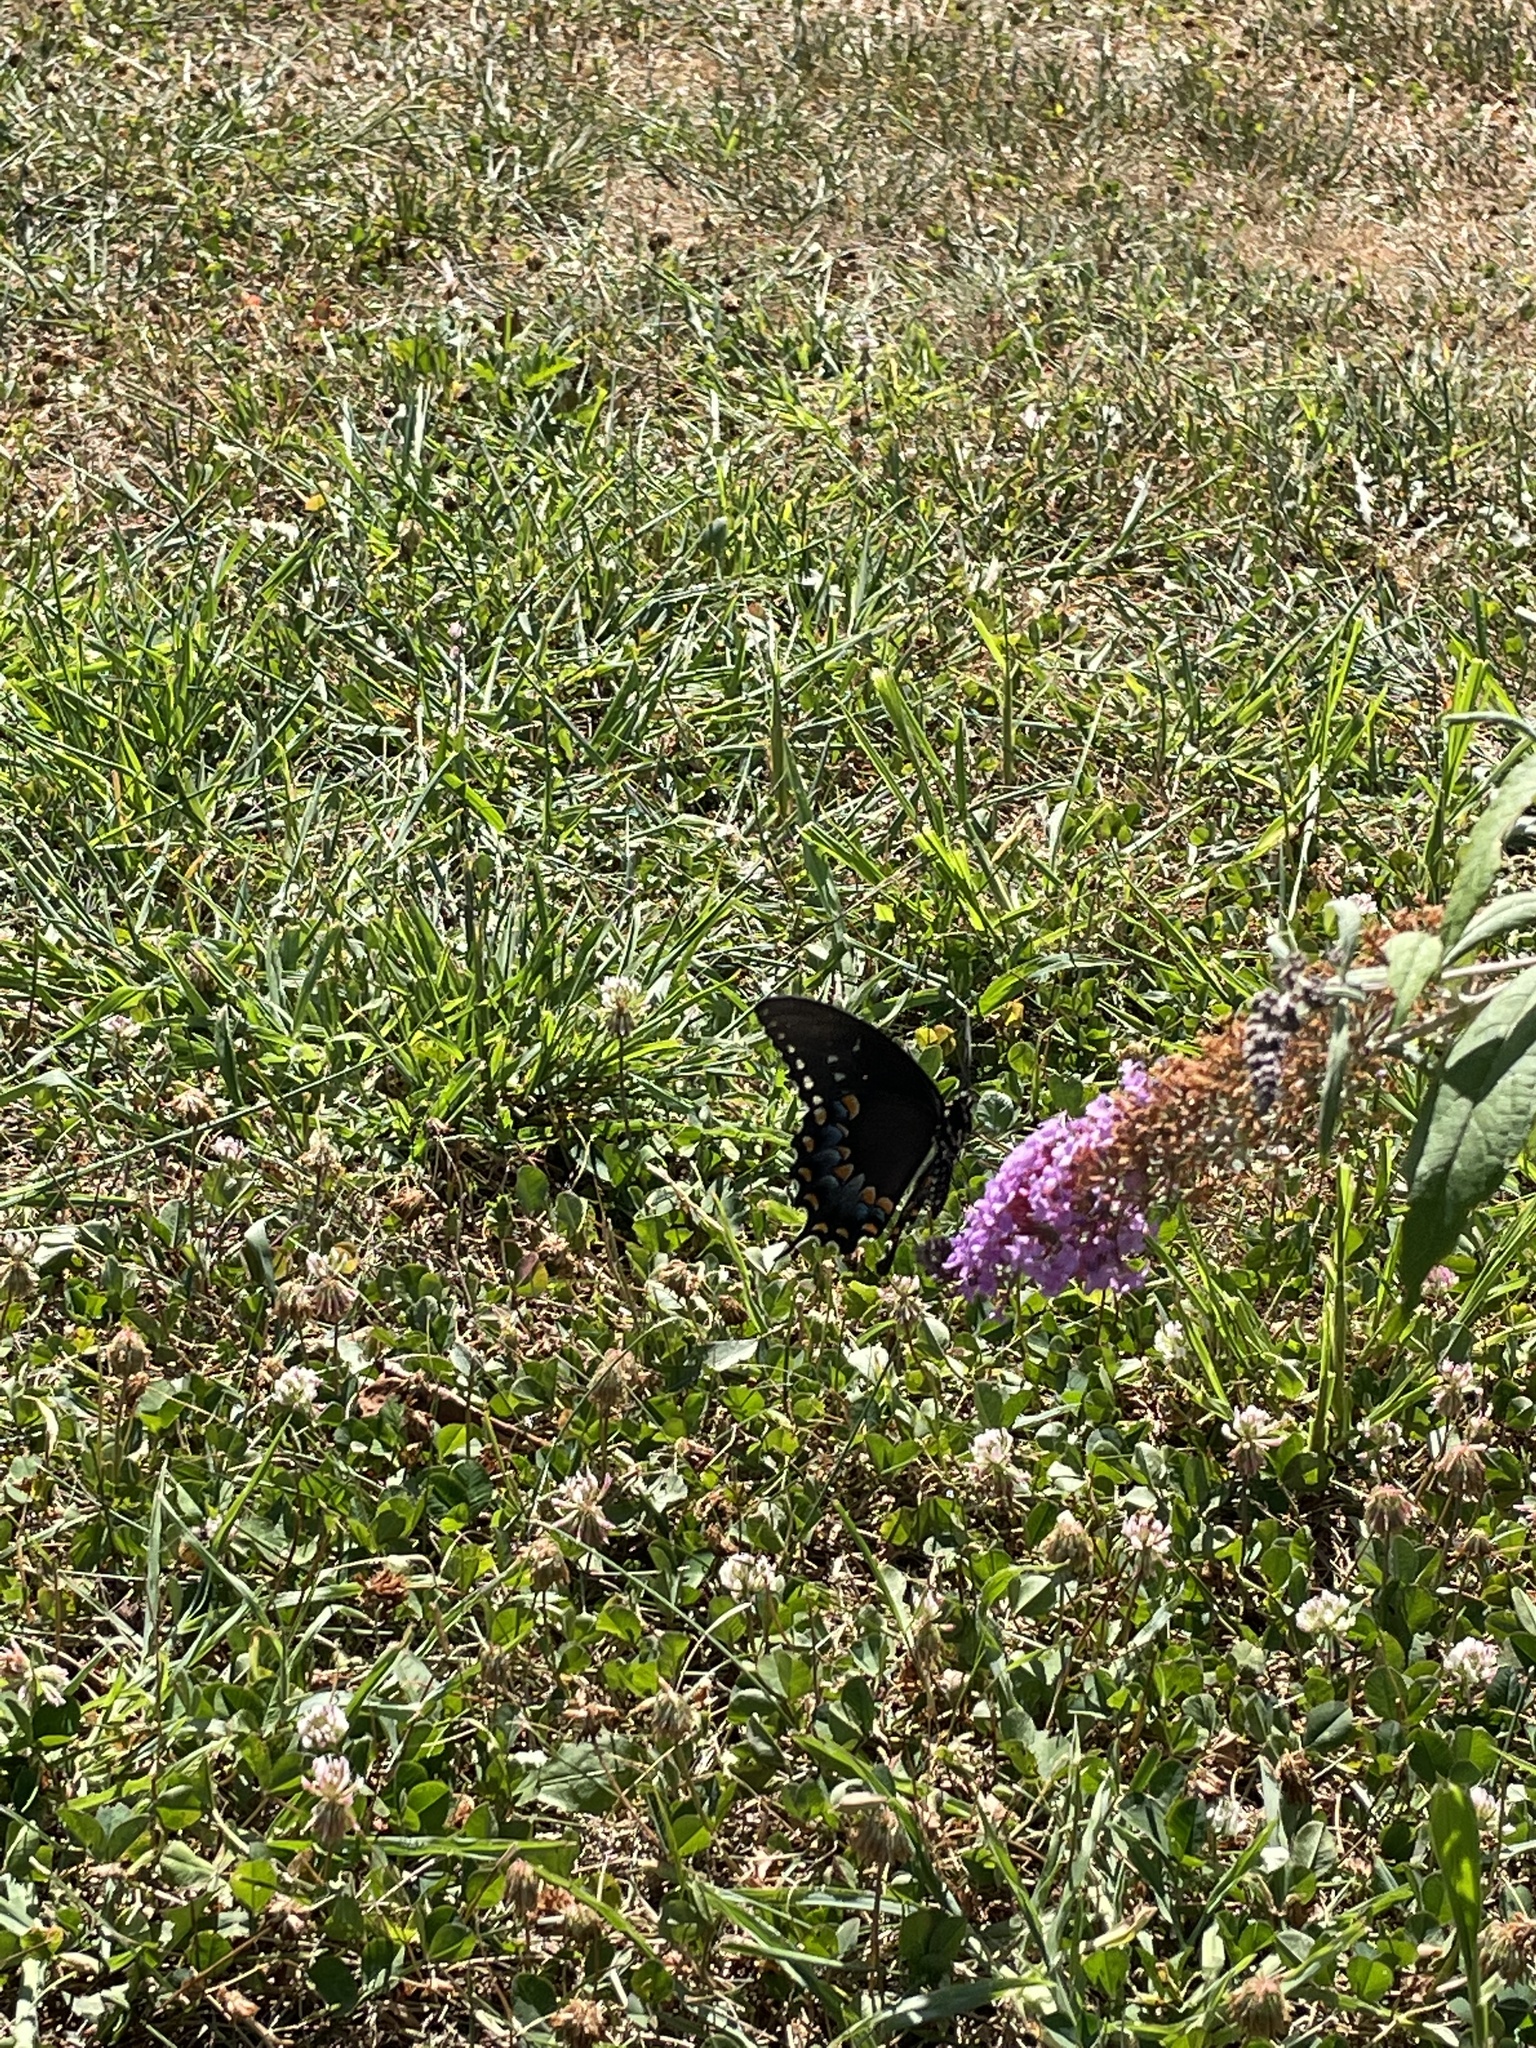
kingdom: Animalia
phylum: Arthropoda
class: Insecta
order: Lepidoptera
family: Papilionidae
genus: Papilio
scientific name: Papilio troilus
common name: Spicebush swallowtail
